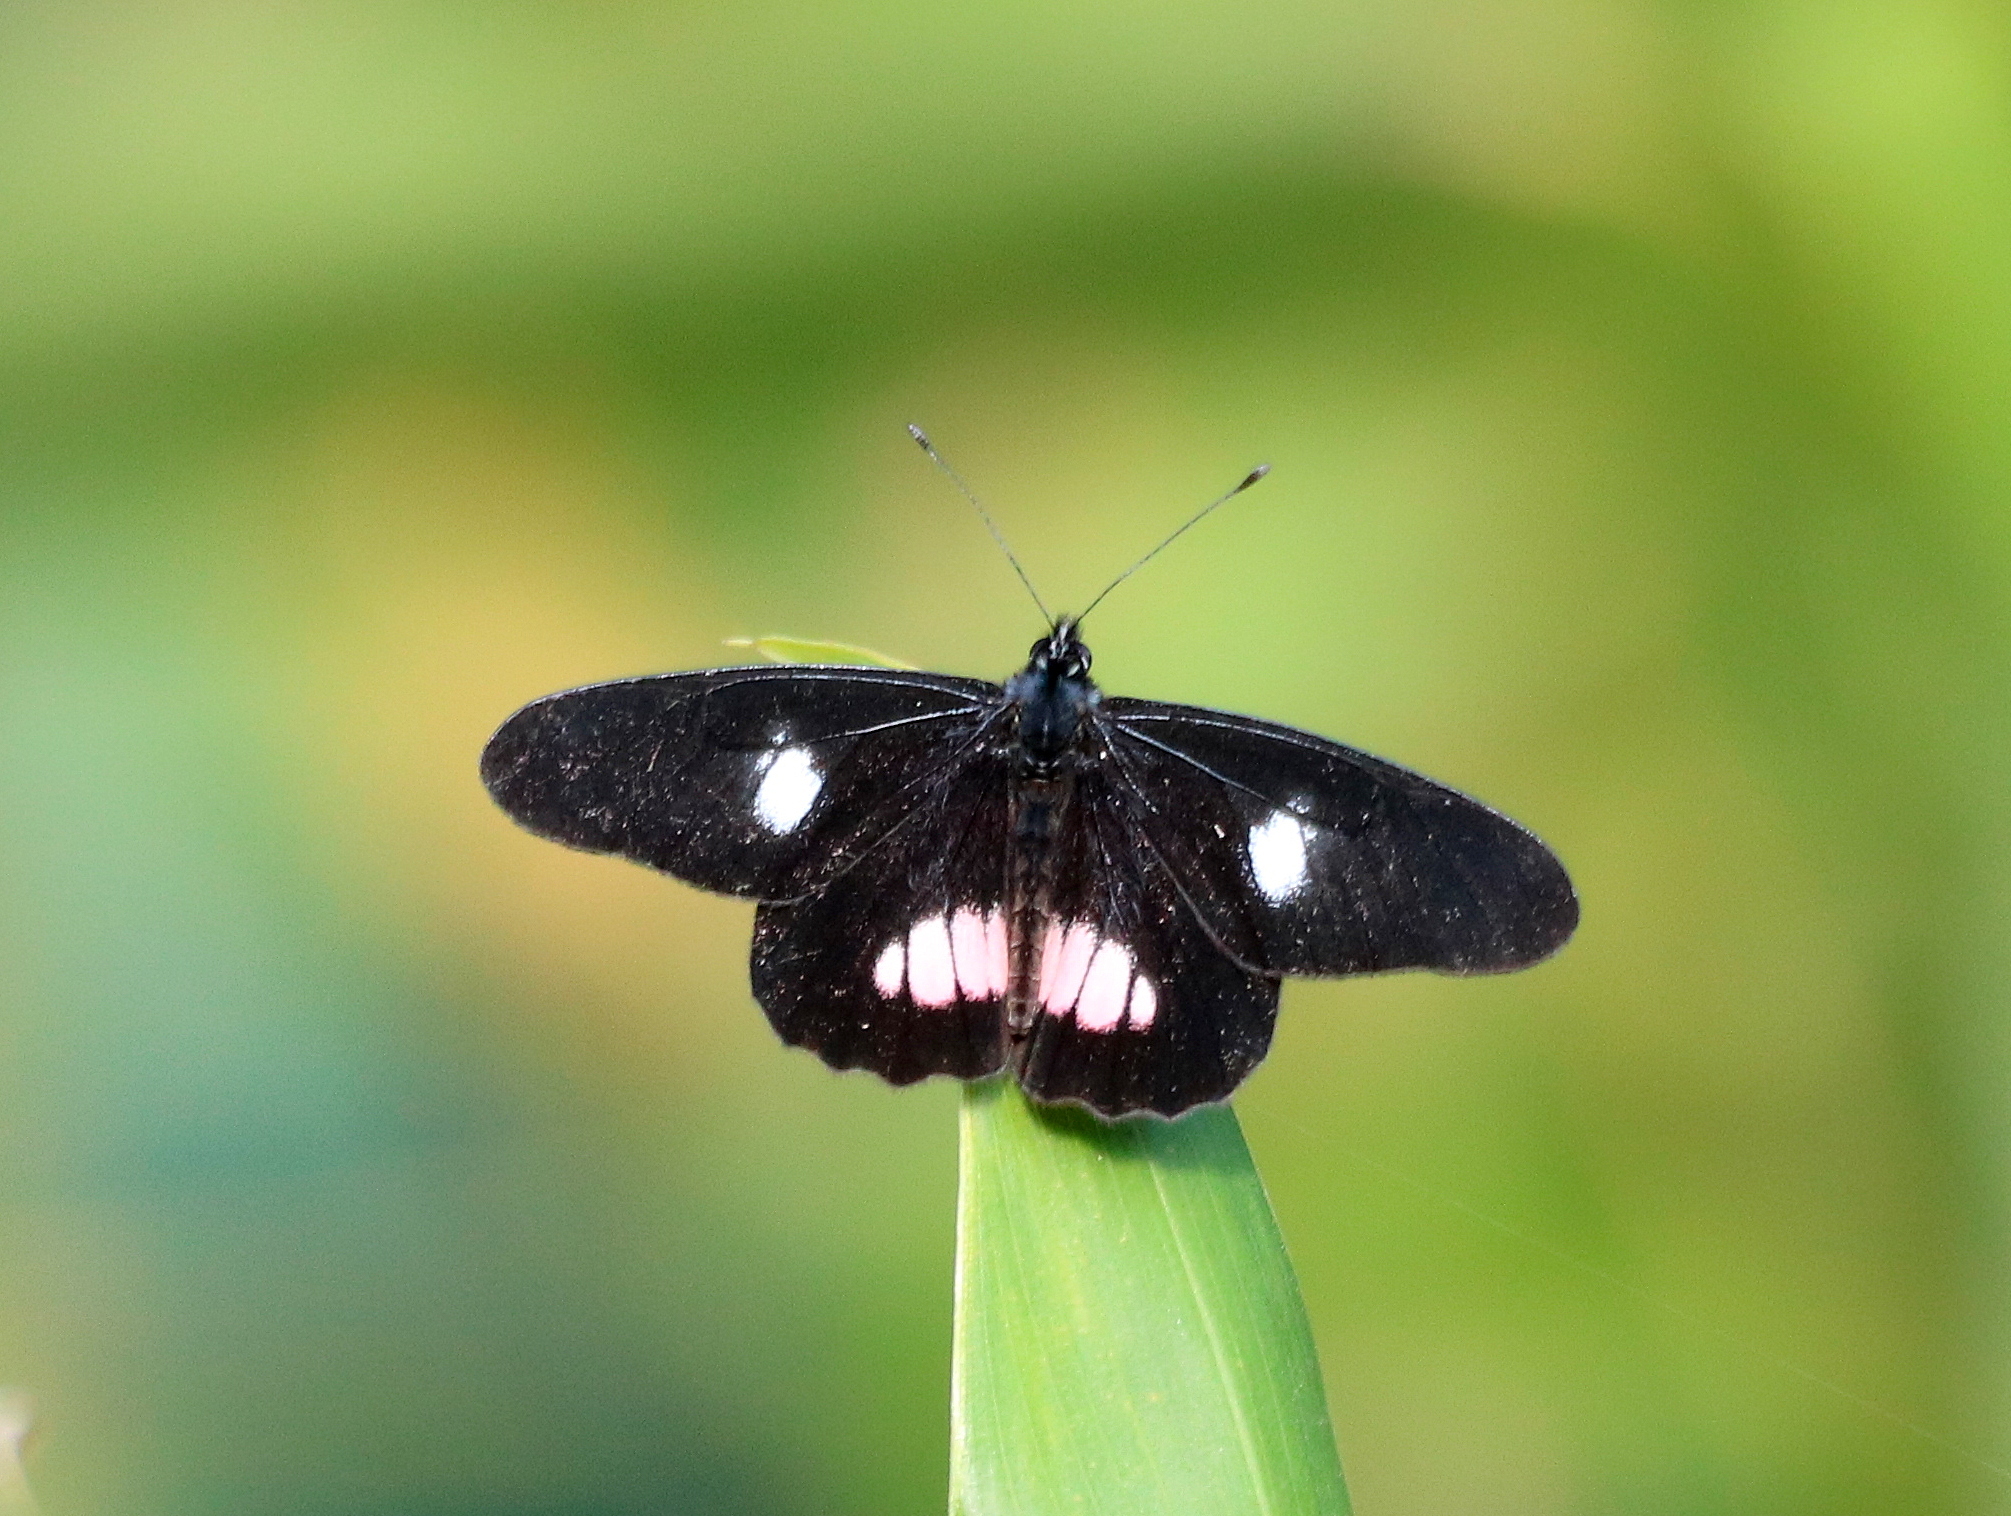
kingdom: Animalia
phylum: Arthropoda
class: Insecta
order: Lepidoptera
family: Pieridae
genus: Archonias
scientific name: Archonias brassolis
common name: Cattleheart white
